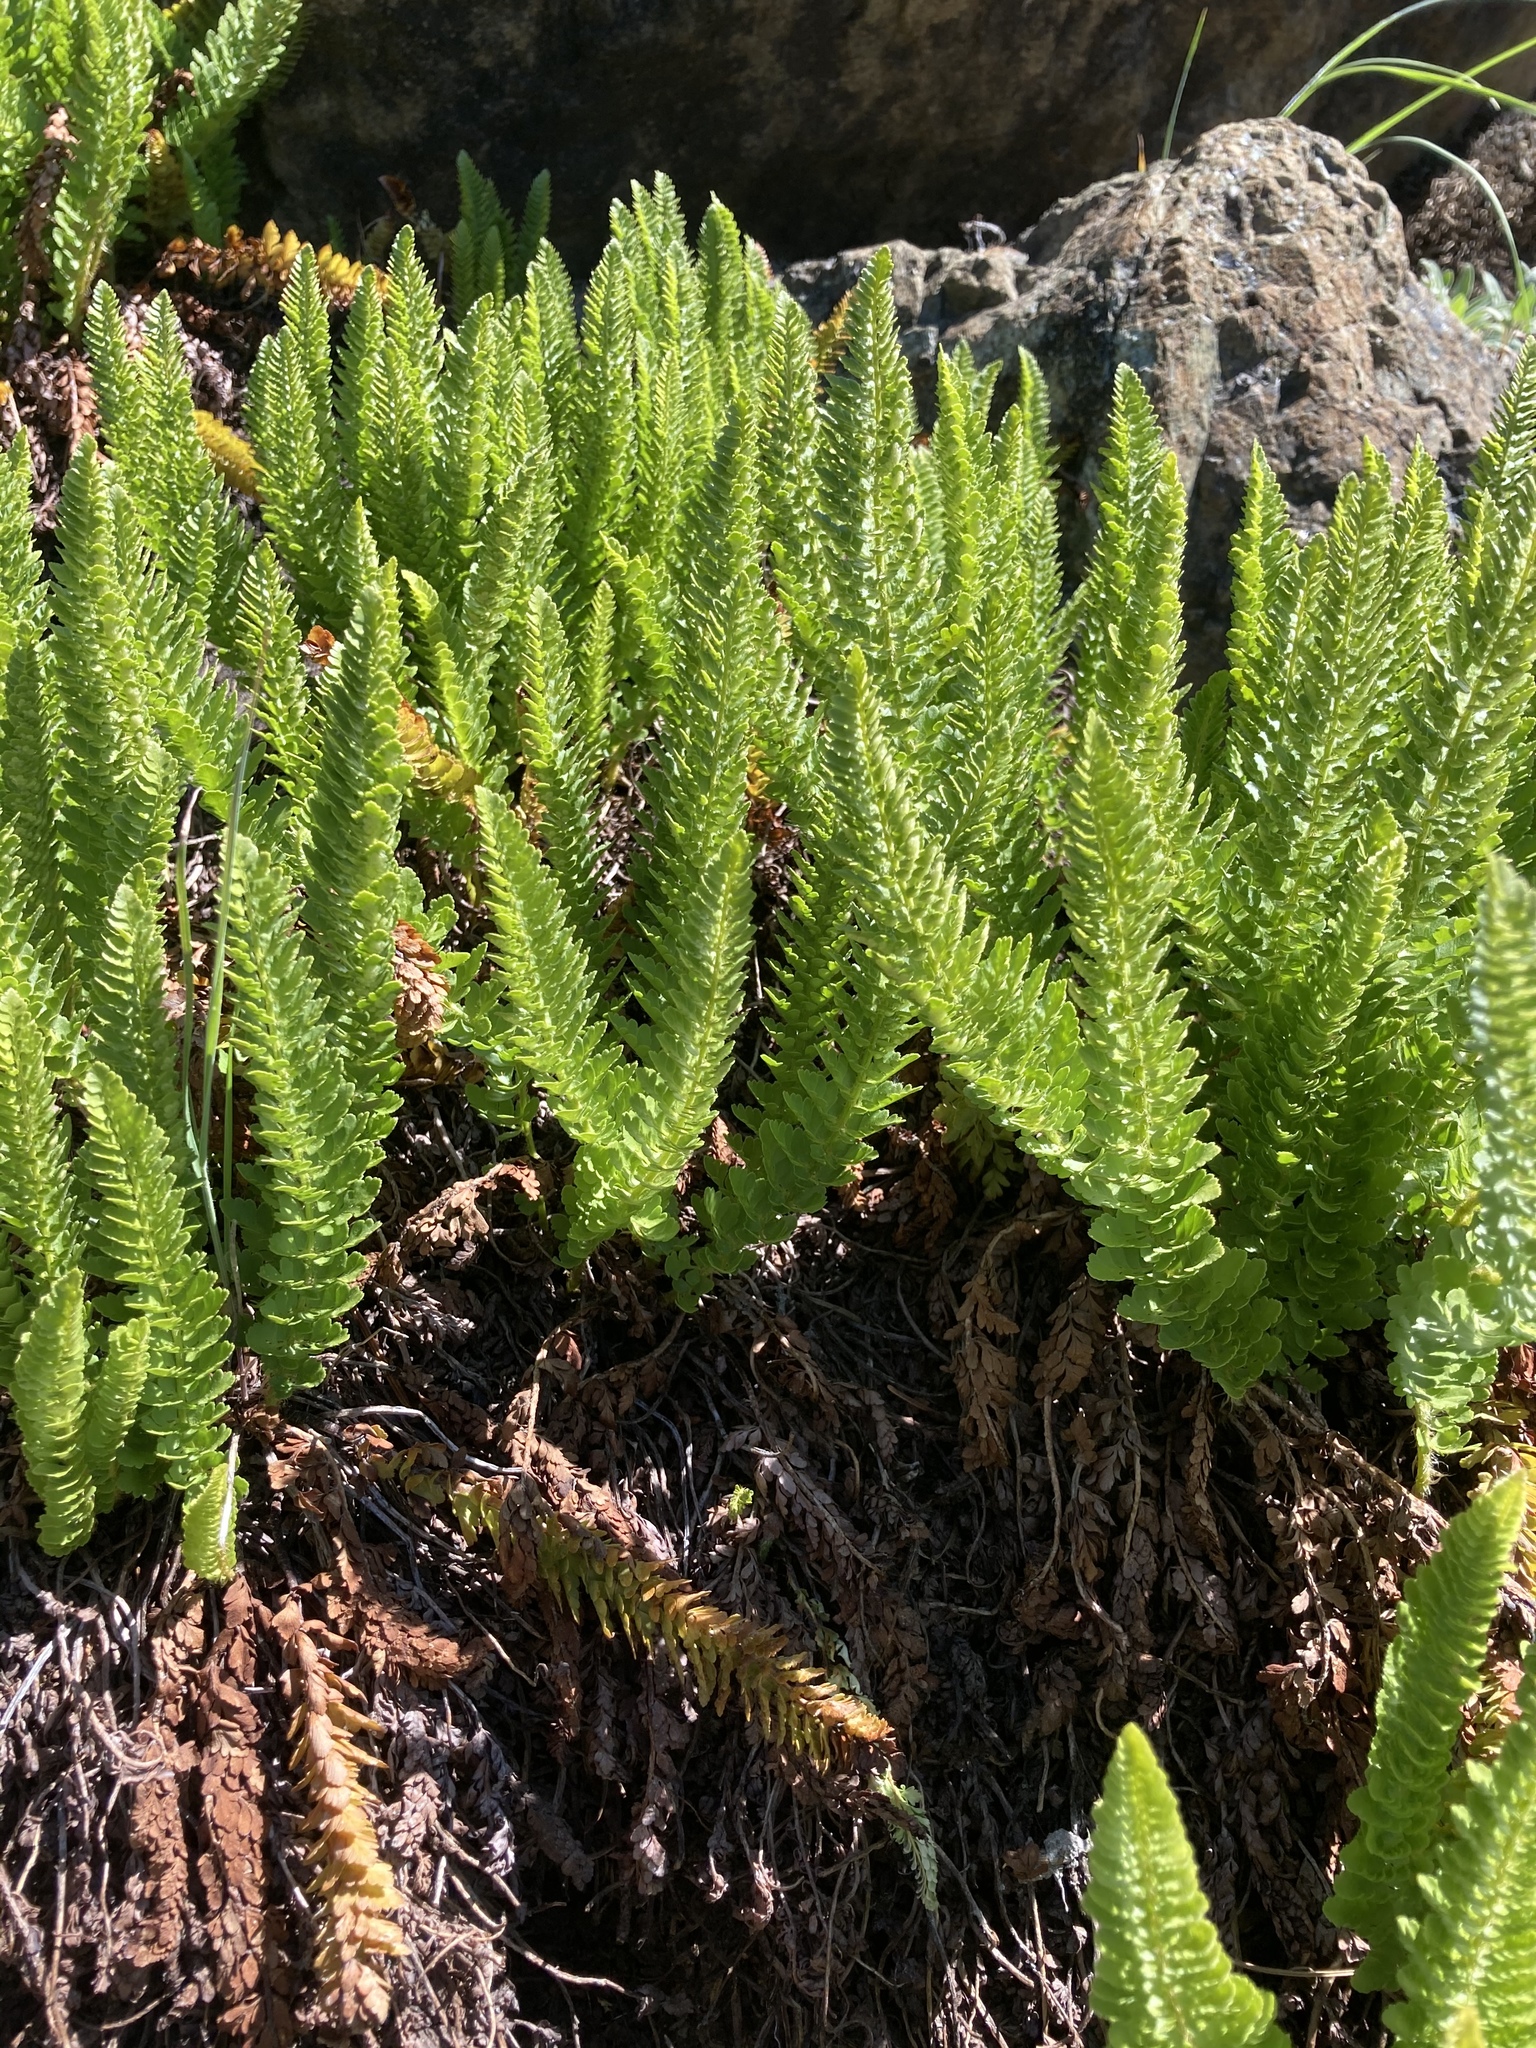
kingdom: Plantae
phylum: Tracheophyta
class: Polypodiopsida
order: Polypodiales
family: Dryopteridaceae
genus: Polystichum
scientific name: Polystichum lemmonii
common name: Lemmon's holly fern
